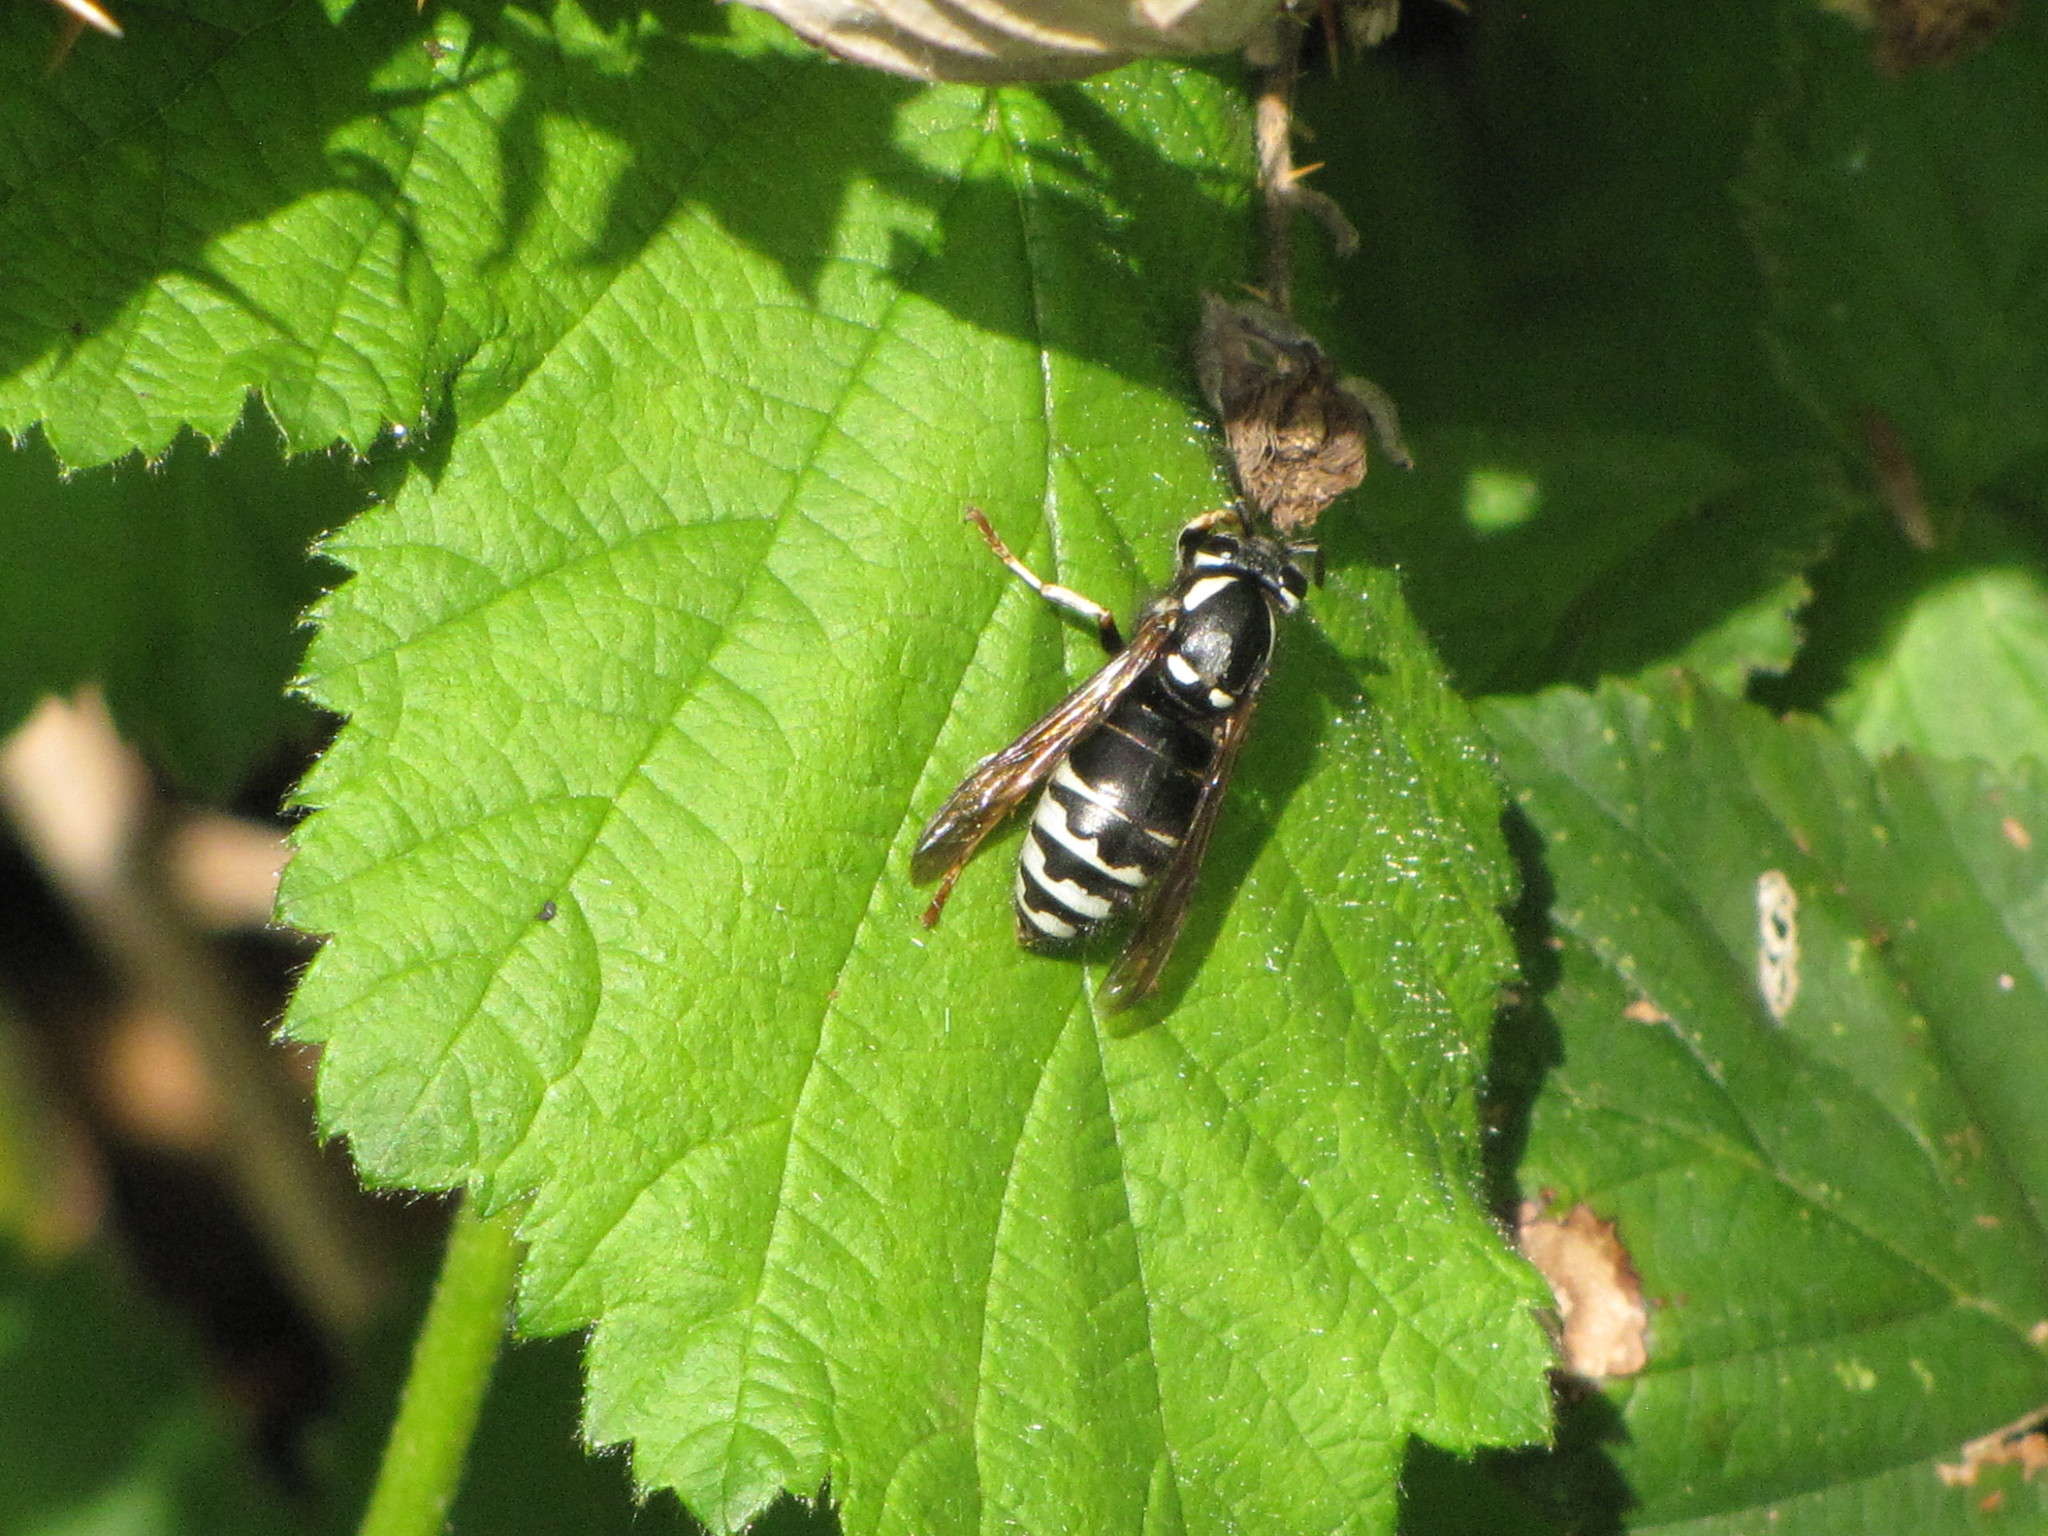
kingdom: Animalia
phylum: Arthropoda
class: Insecta
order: Hymenoptera
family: Vespidae
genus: Vespula
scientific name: Vespula consobrina
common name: Blackjacket
